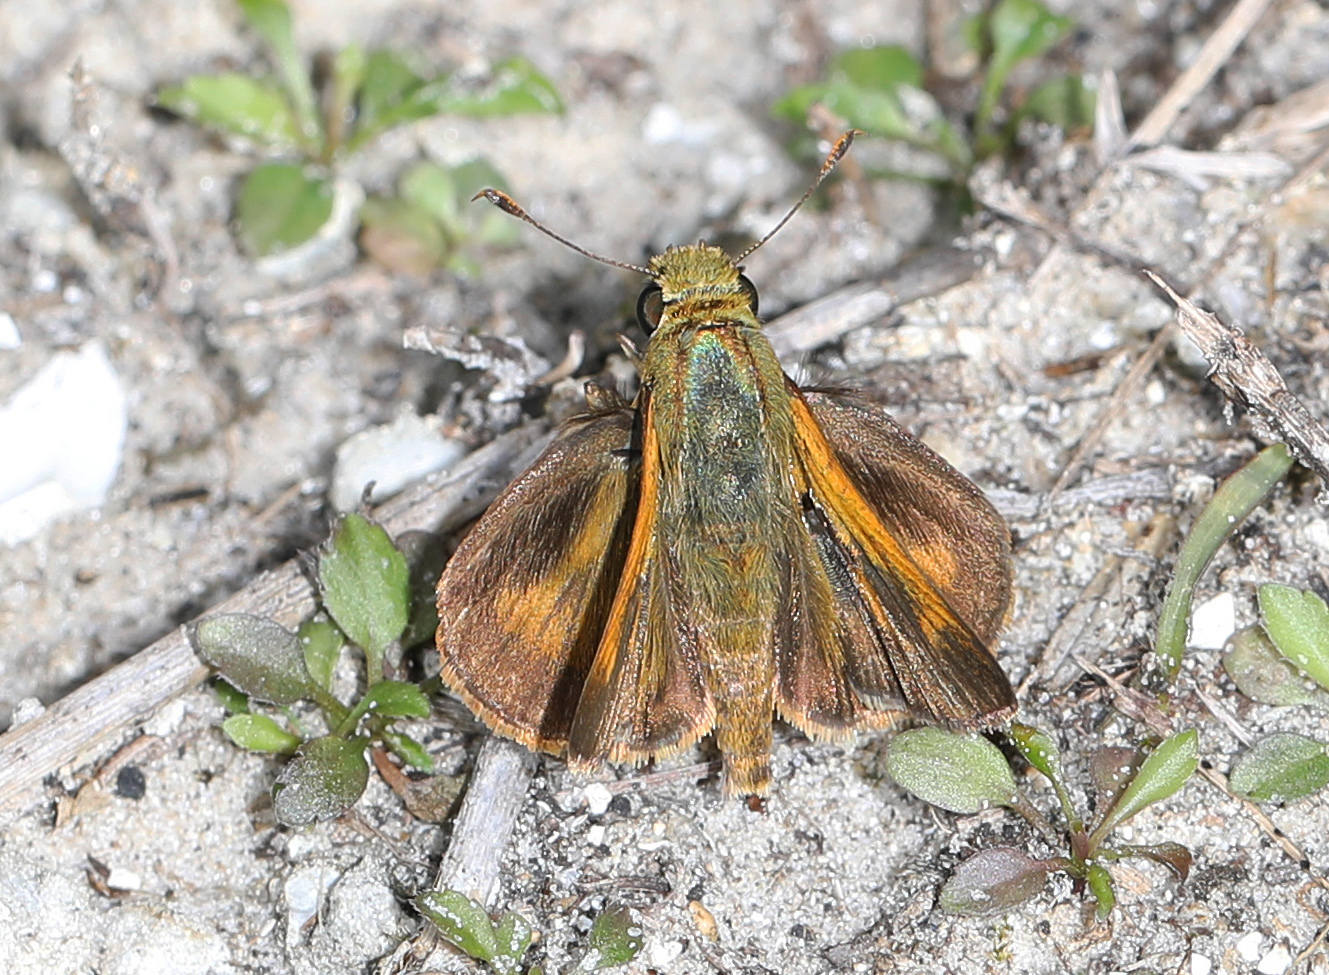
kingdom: Animalia
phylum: Arthropoda
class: Insecta
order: Lepidoptera
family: Hesperiidae
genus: Polites
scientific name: Polites otho
